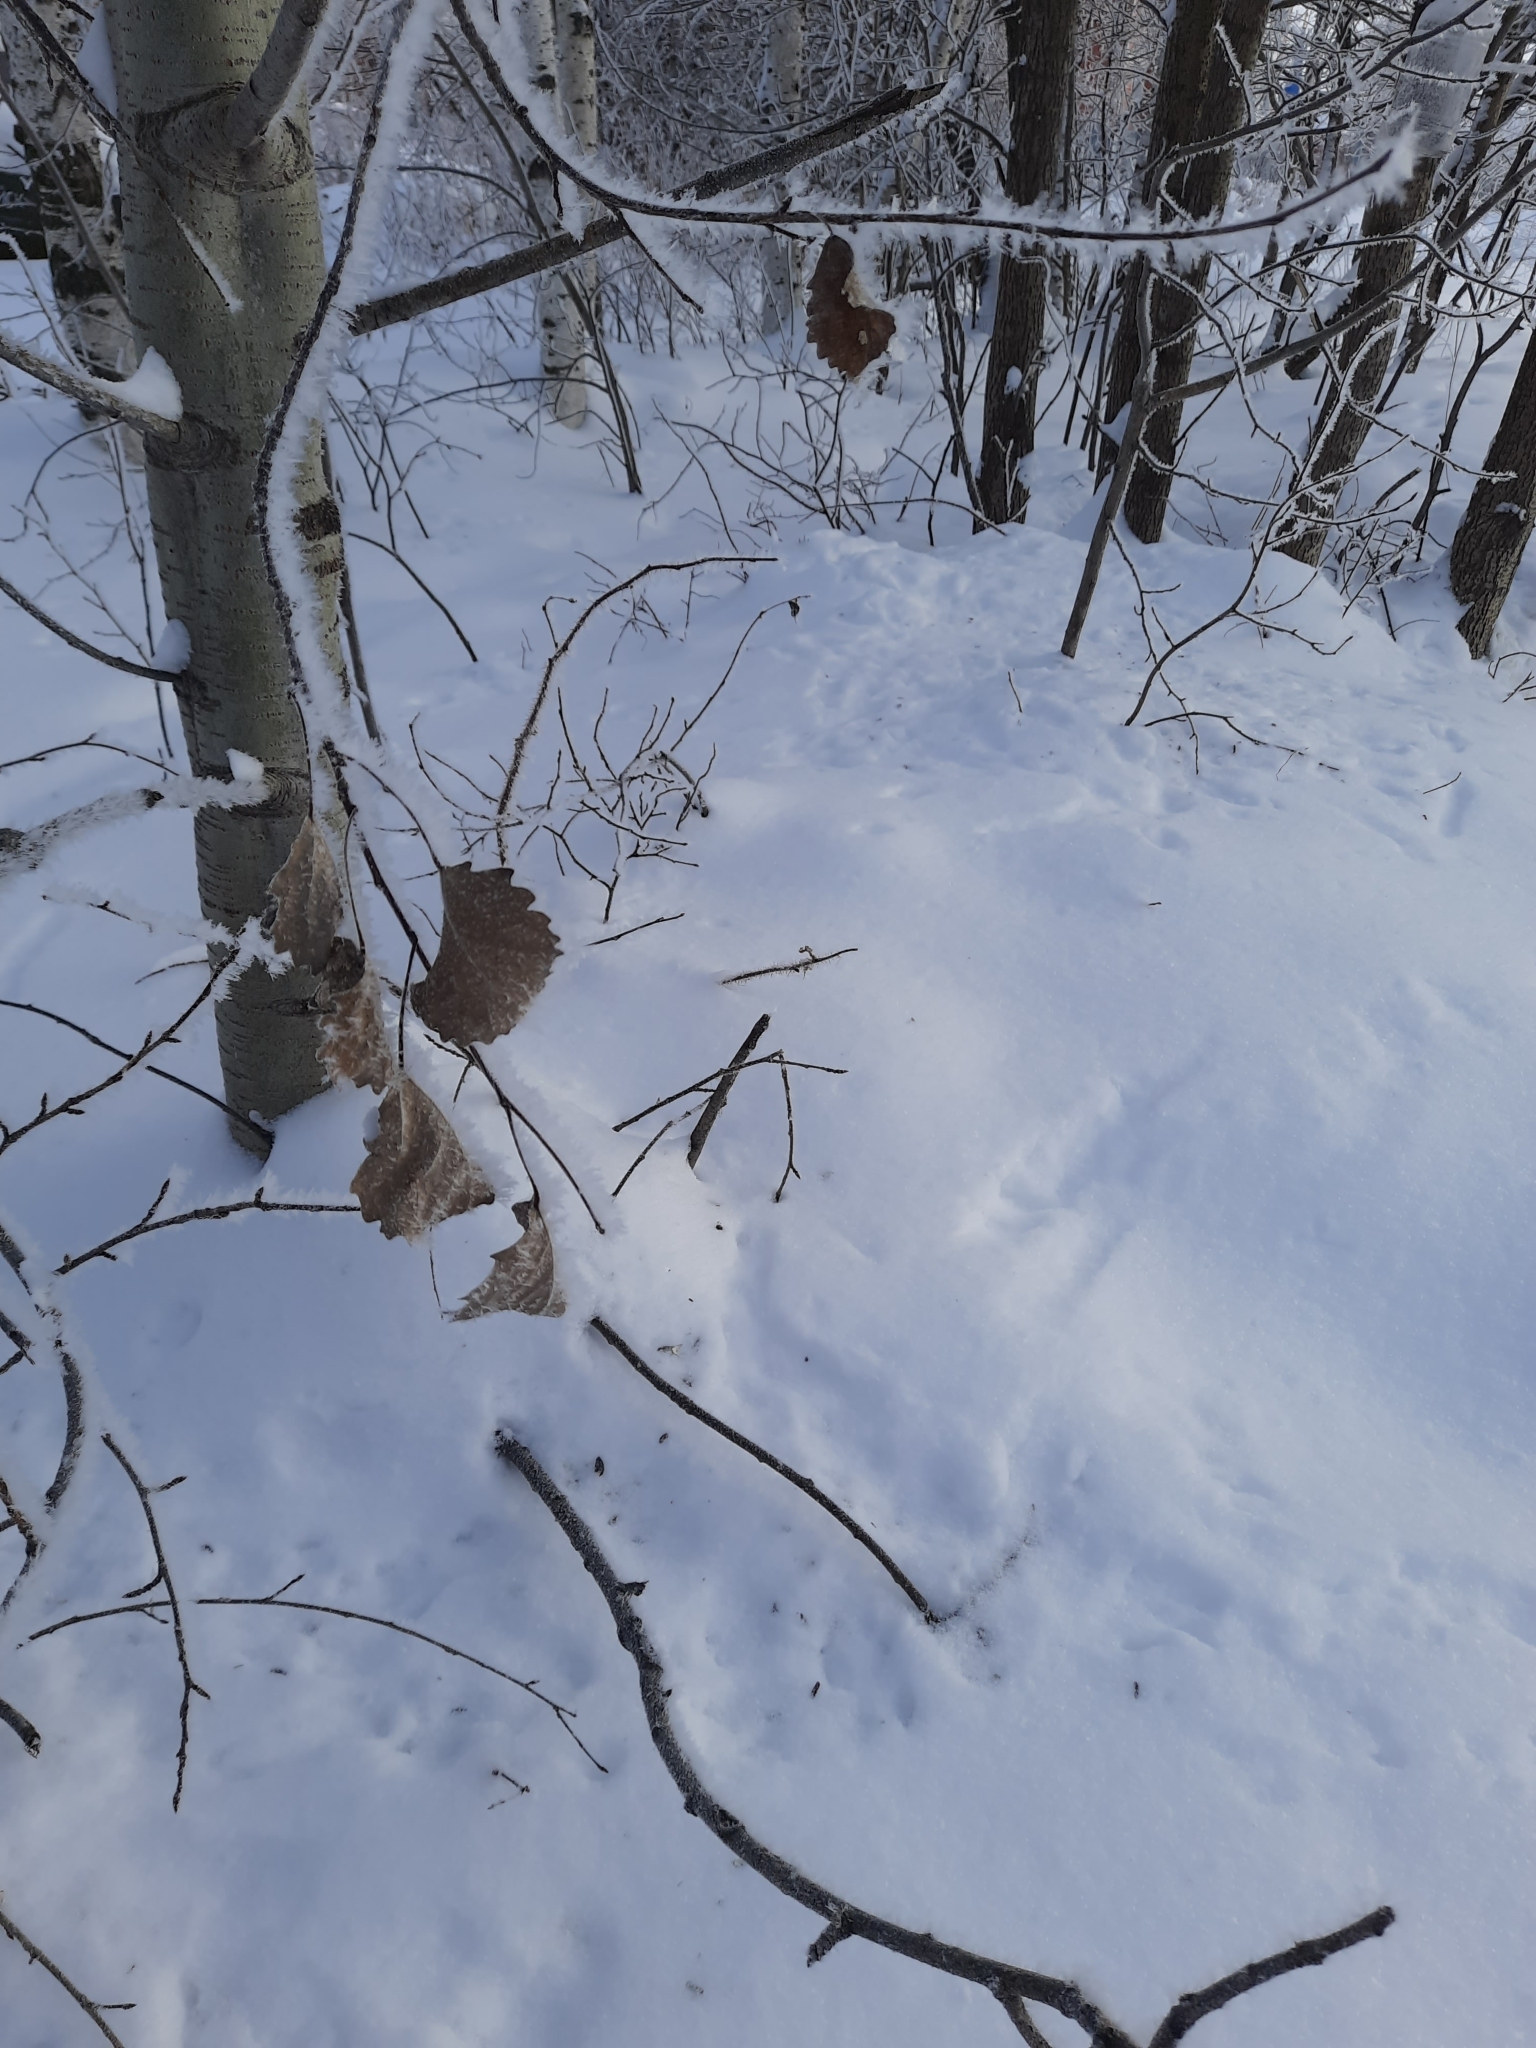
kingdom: Plantae
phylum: Tracheophyta
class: Magnoliopsida
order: Malpighiales
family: Salicaceae
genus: Populus
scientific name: Populus tremula
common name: European aspen
